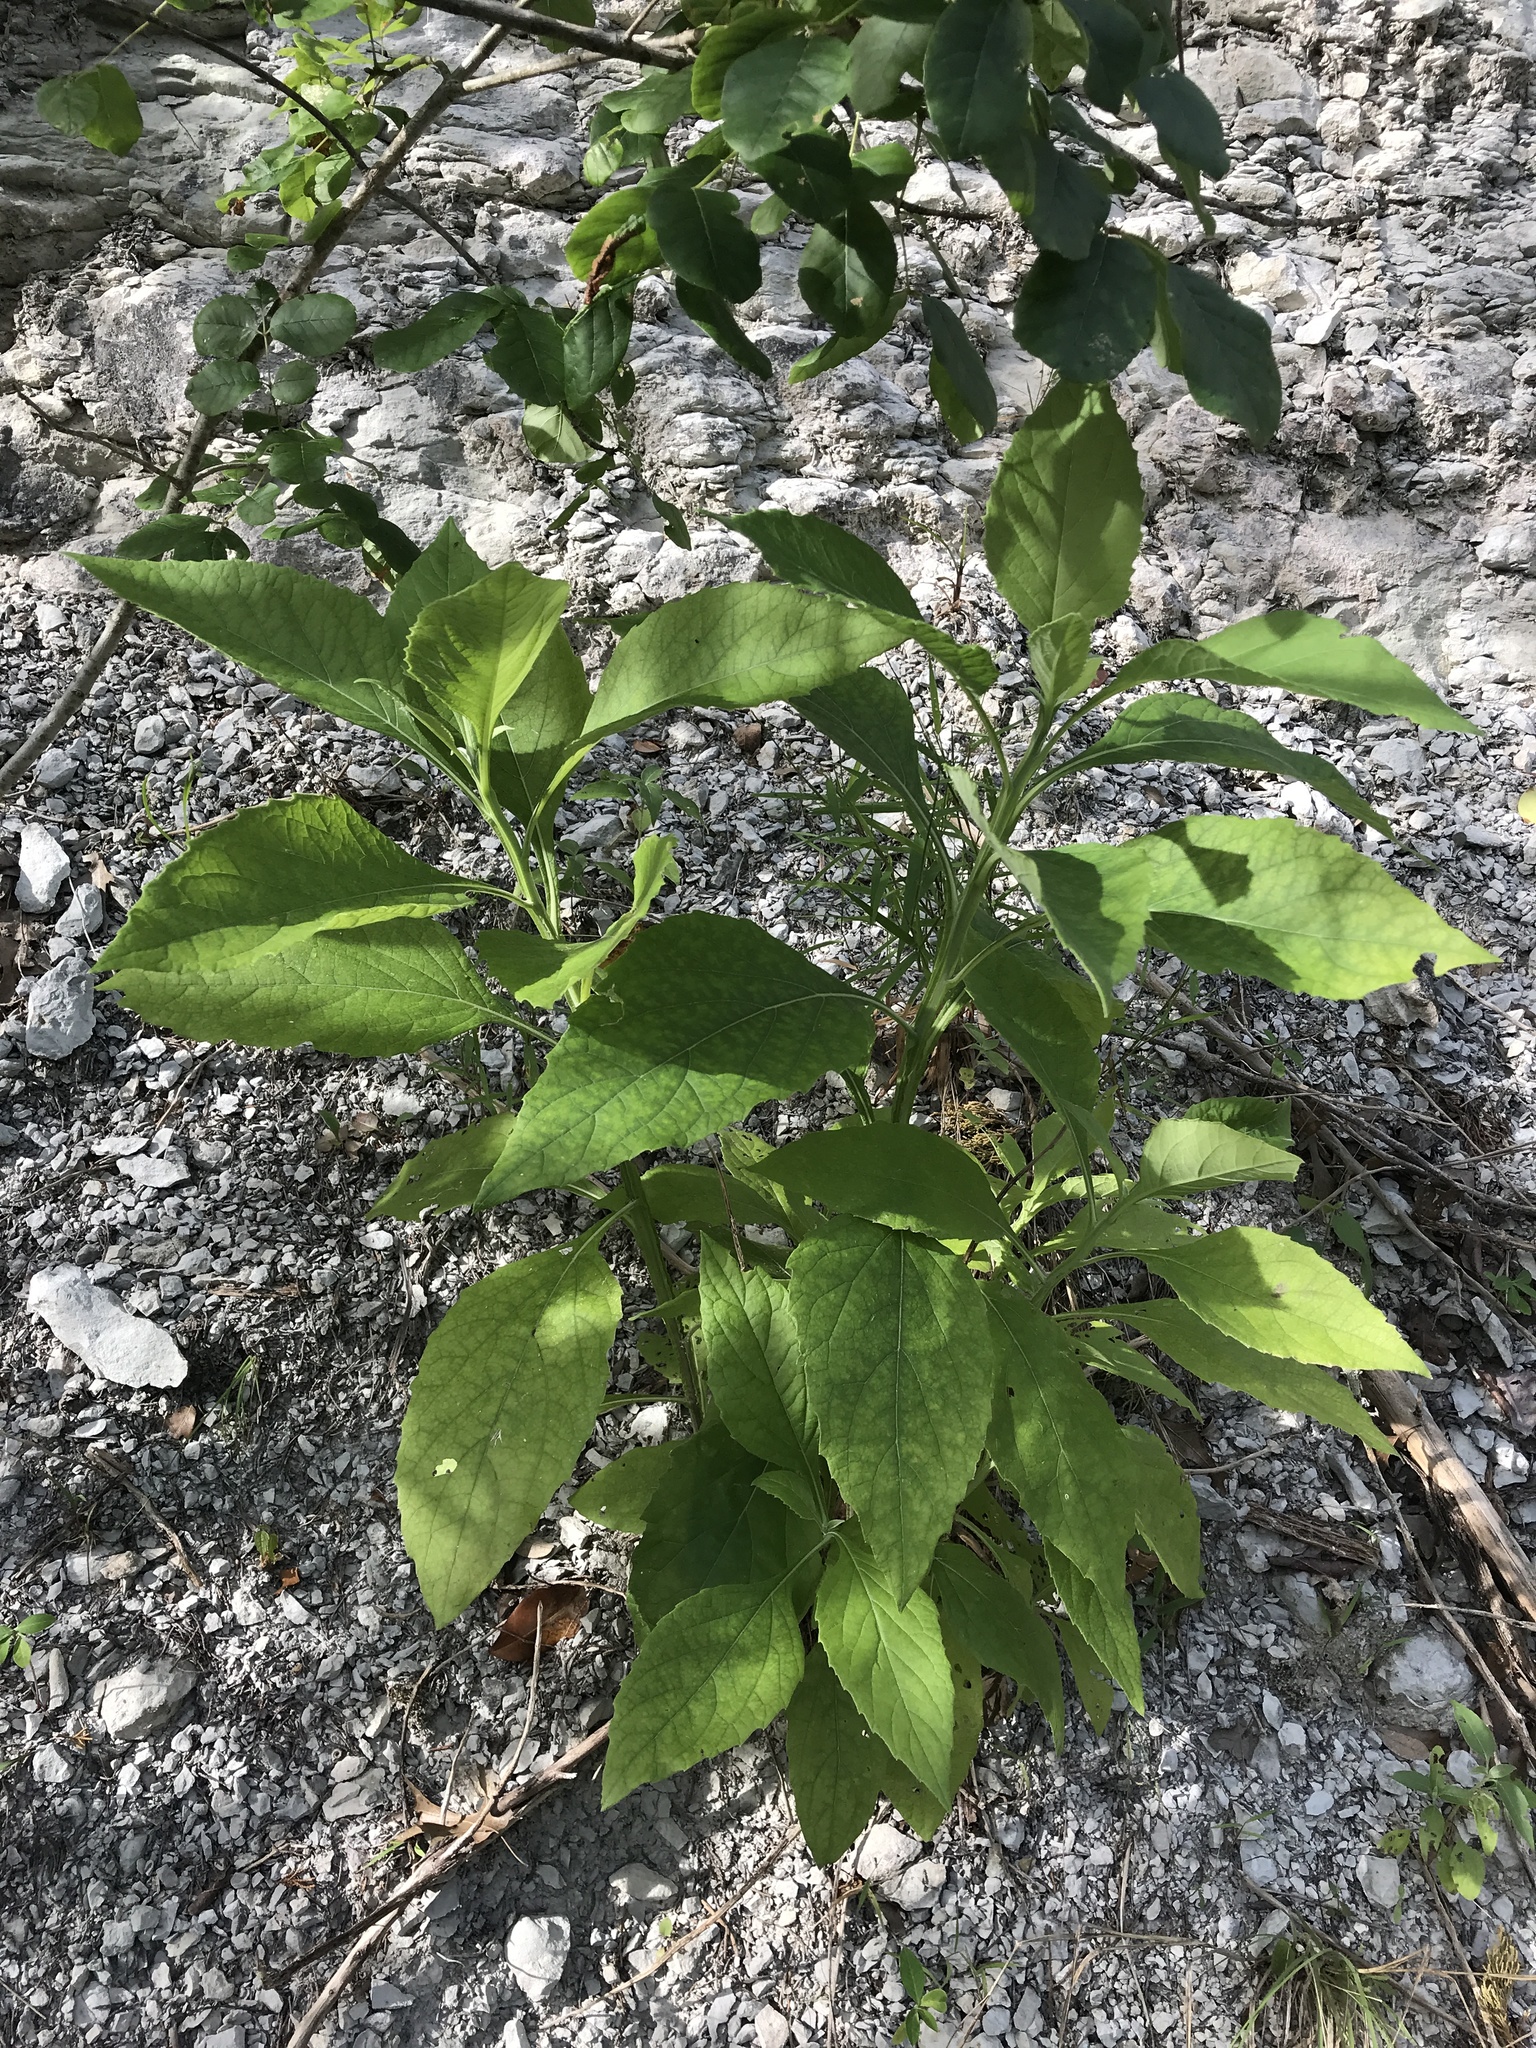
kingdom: Plantae
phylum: Tracheophyta
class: Magnoliopsida
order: Asterales
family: Asteraceae
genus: Verbesina
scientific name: Verbesina virginica
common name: Frostweed
